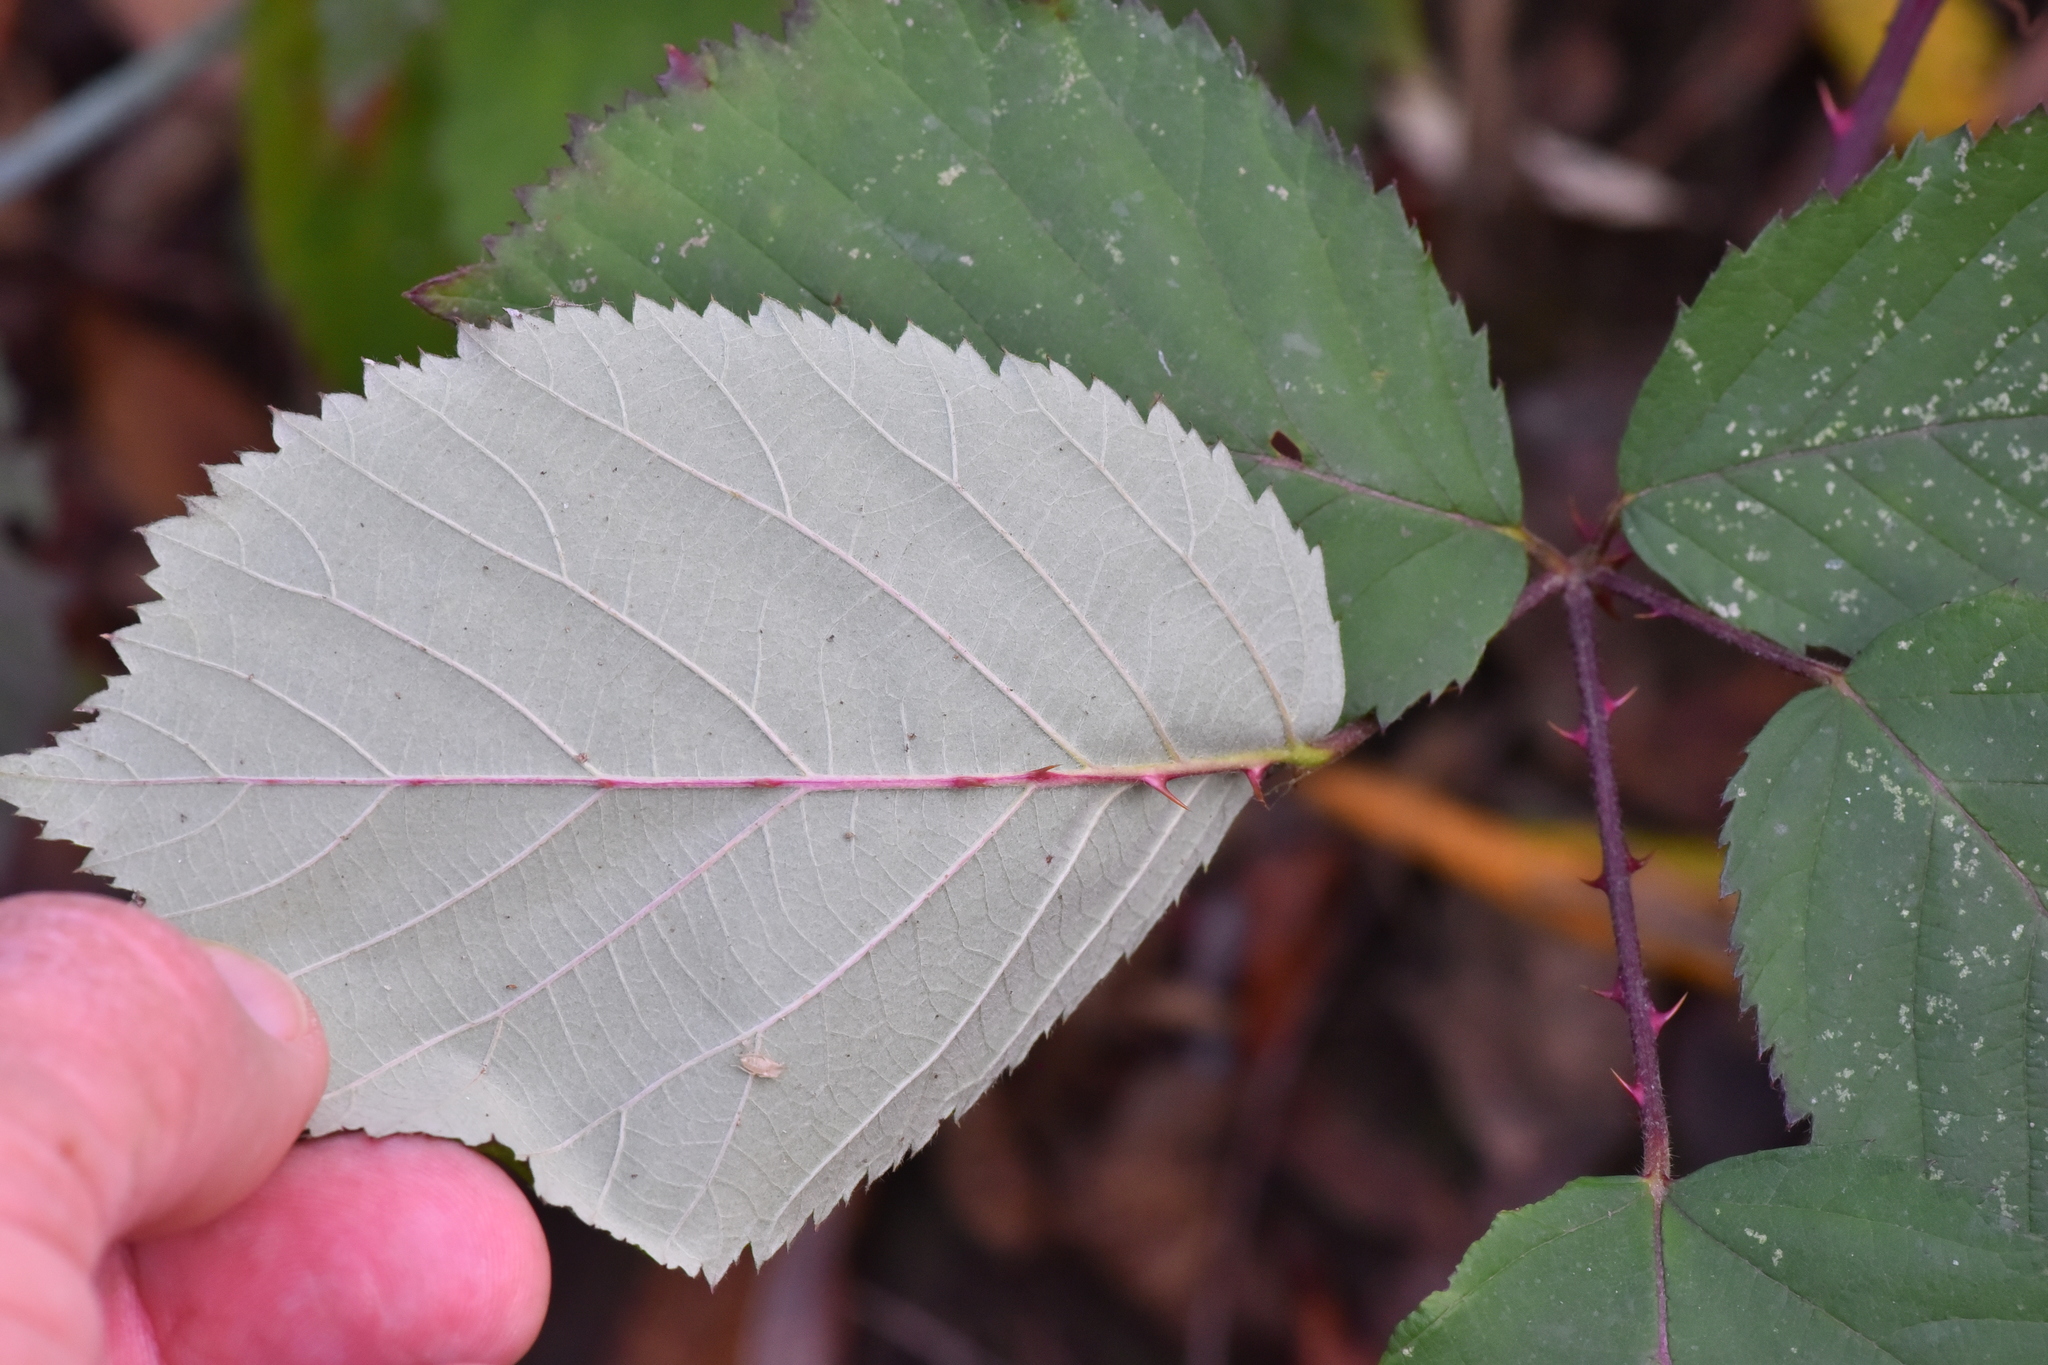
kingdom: Plantae
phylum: Tracheophyta
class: Magnoliopsida
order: Rosales
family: Rosaceae
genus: Rubus
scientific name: Rubus armeniacus
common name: Himalayan blackberry
